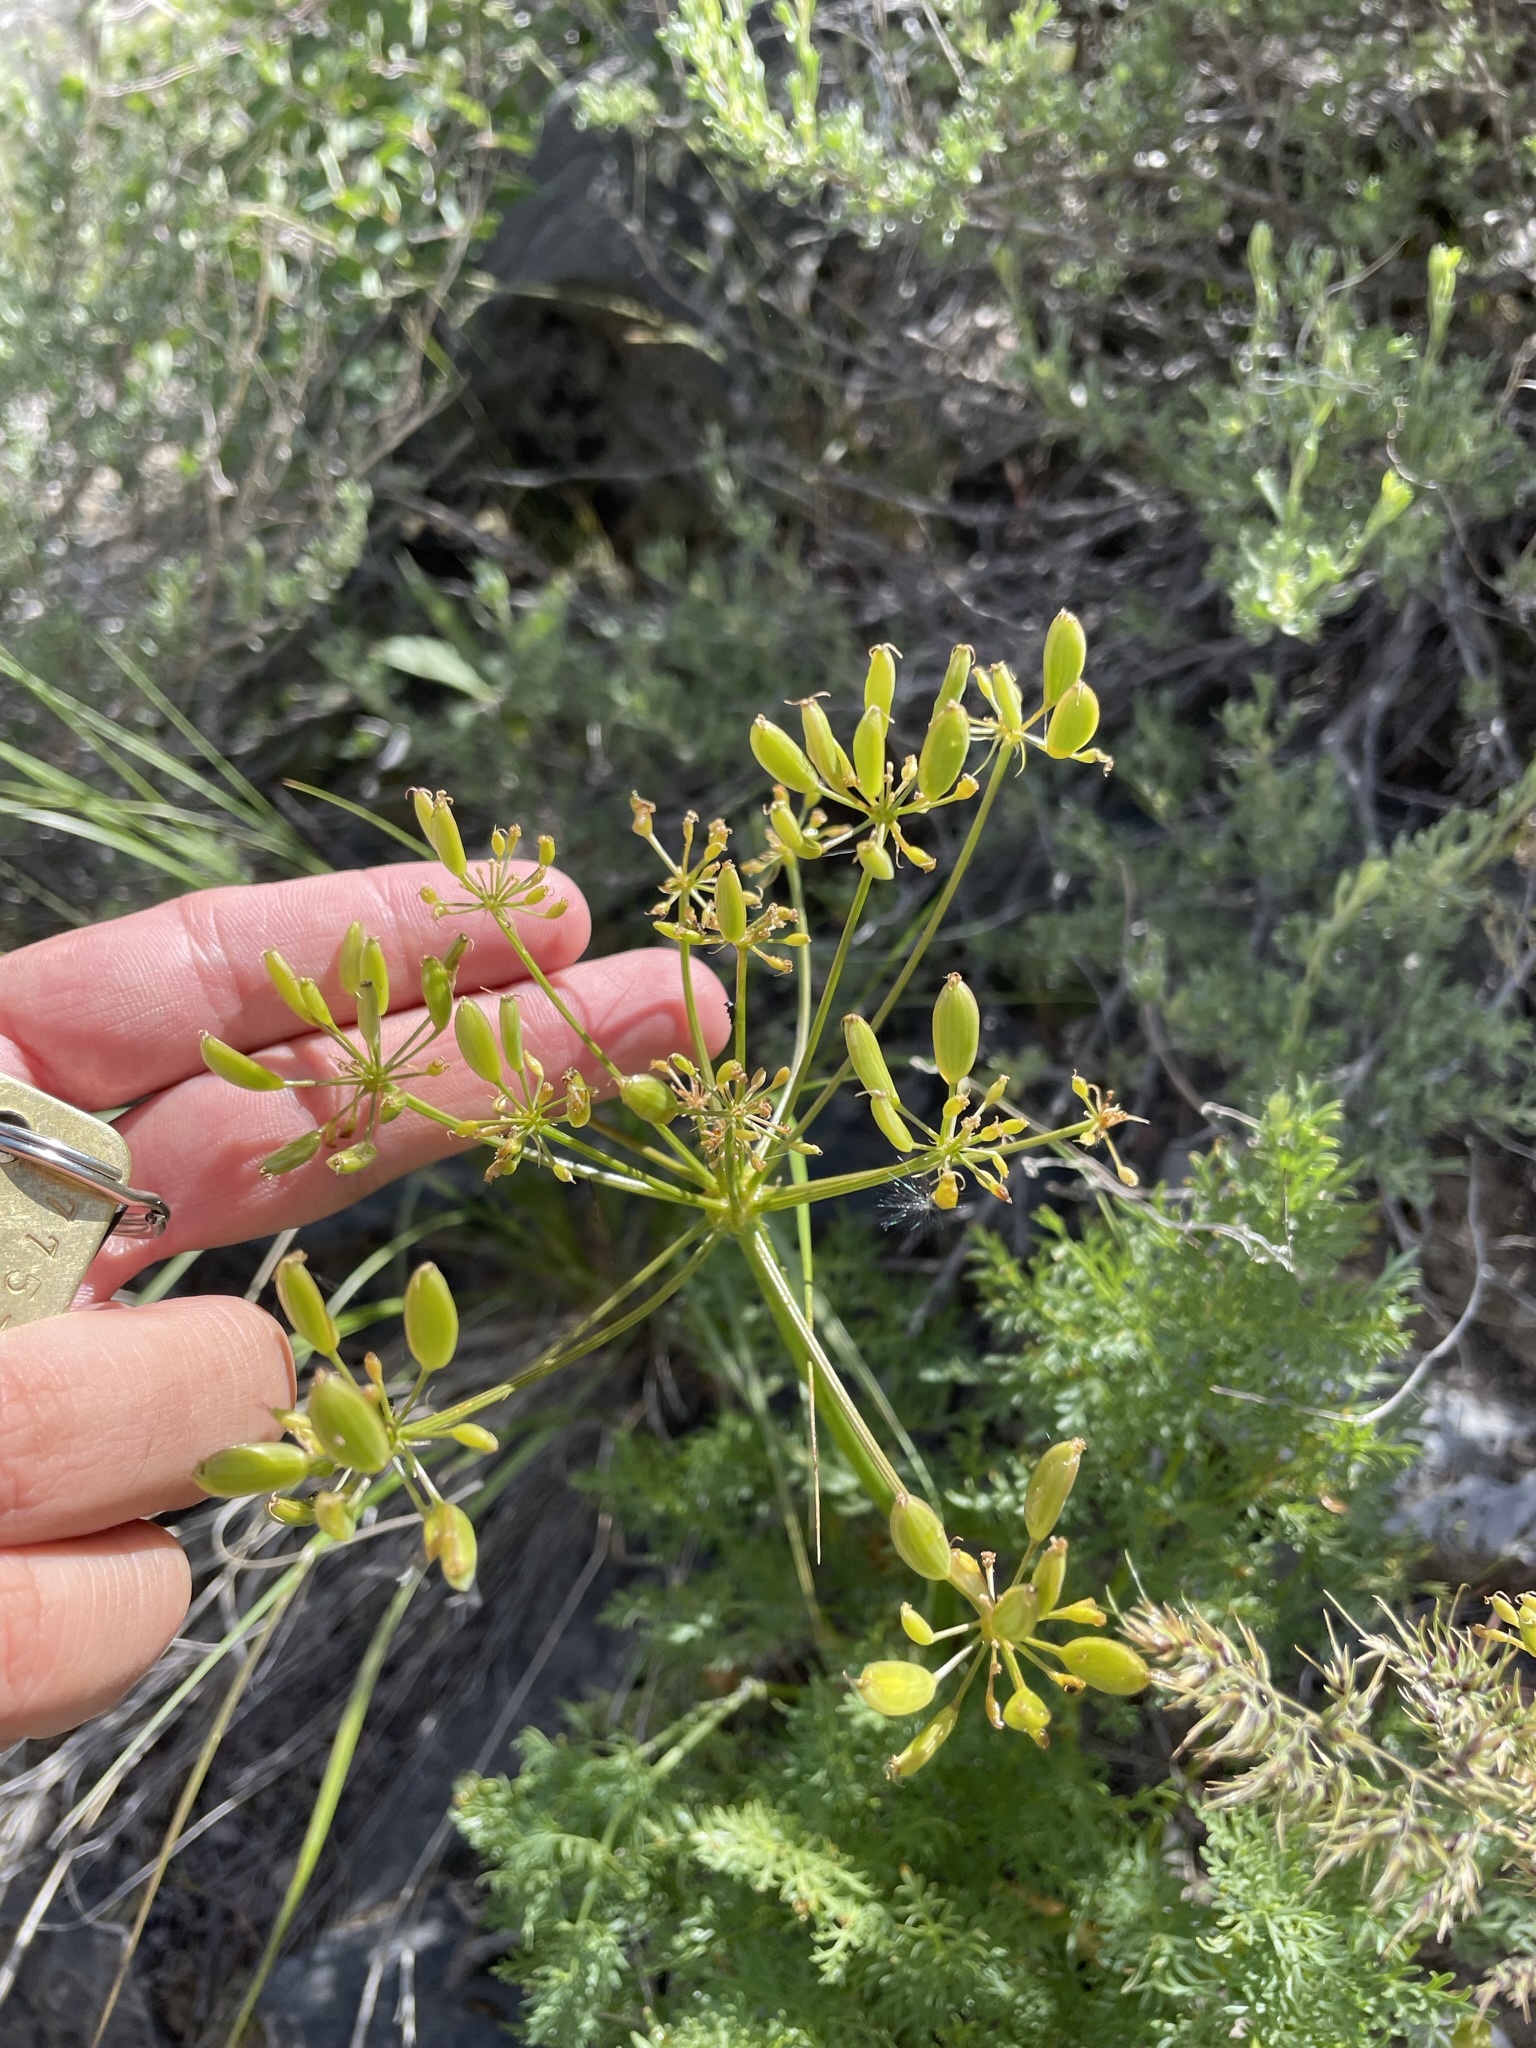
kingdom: Plantae
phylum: Tracheophyta
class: Magnoliopsida
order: Apiales
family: Apiaceae
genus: Lomatium
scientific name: Lomatium multifidum
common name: Carrot-leaved biscuitroot
